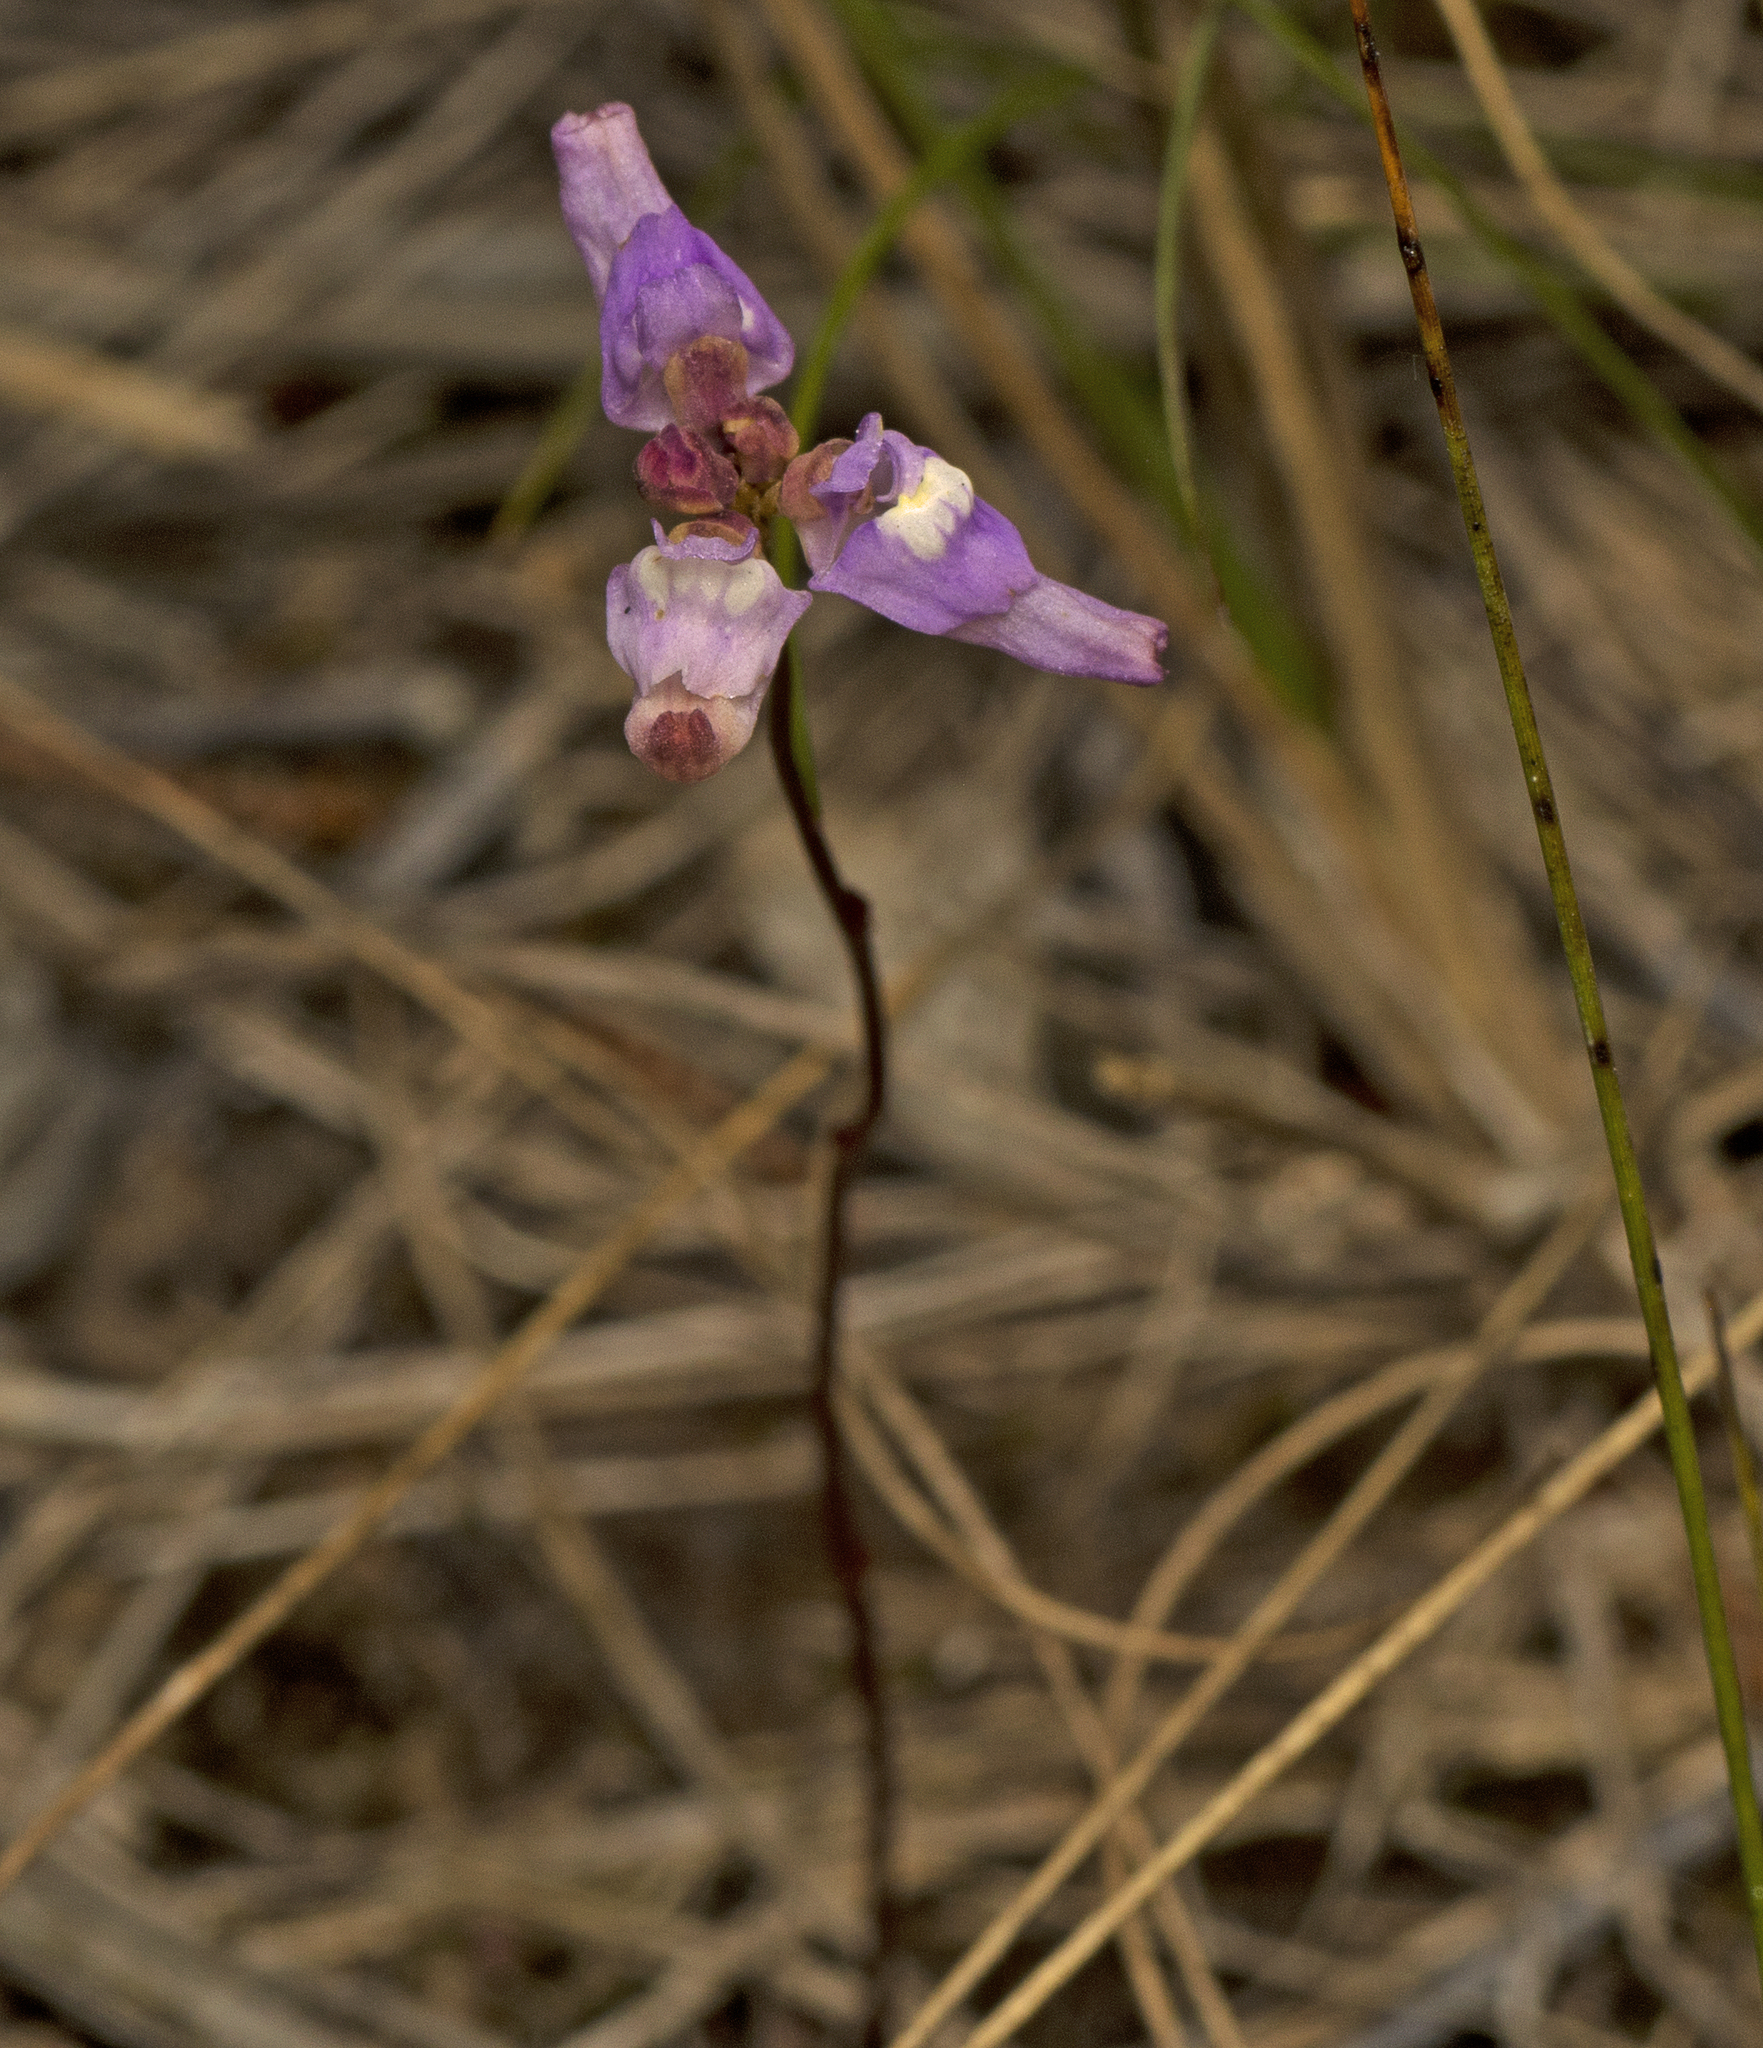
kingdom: Plantae
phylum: Tracheophyta
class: Magnoliopsida
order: Lamiales
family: Lentibulariaceae
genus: Utricularia
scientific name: Utricularia caerulea
